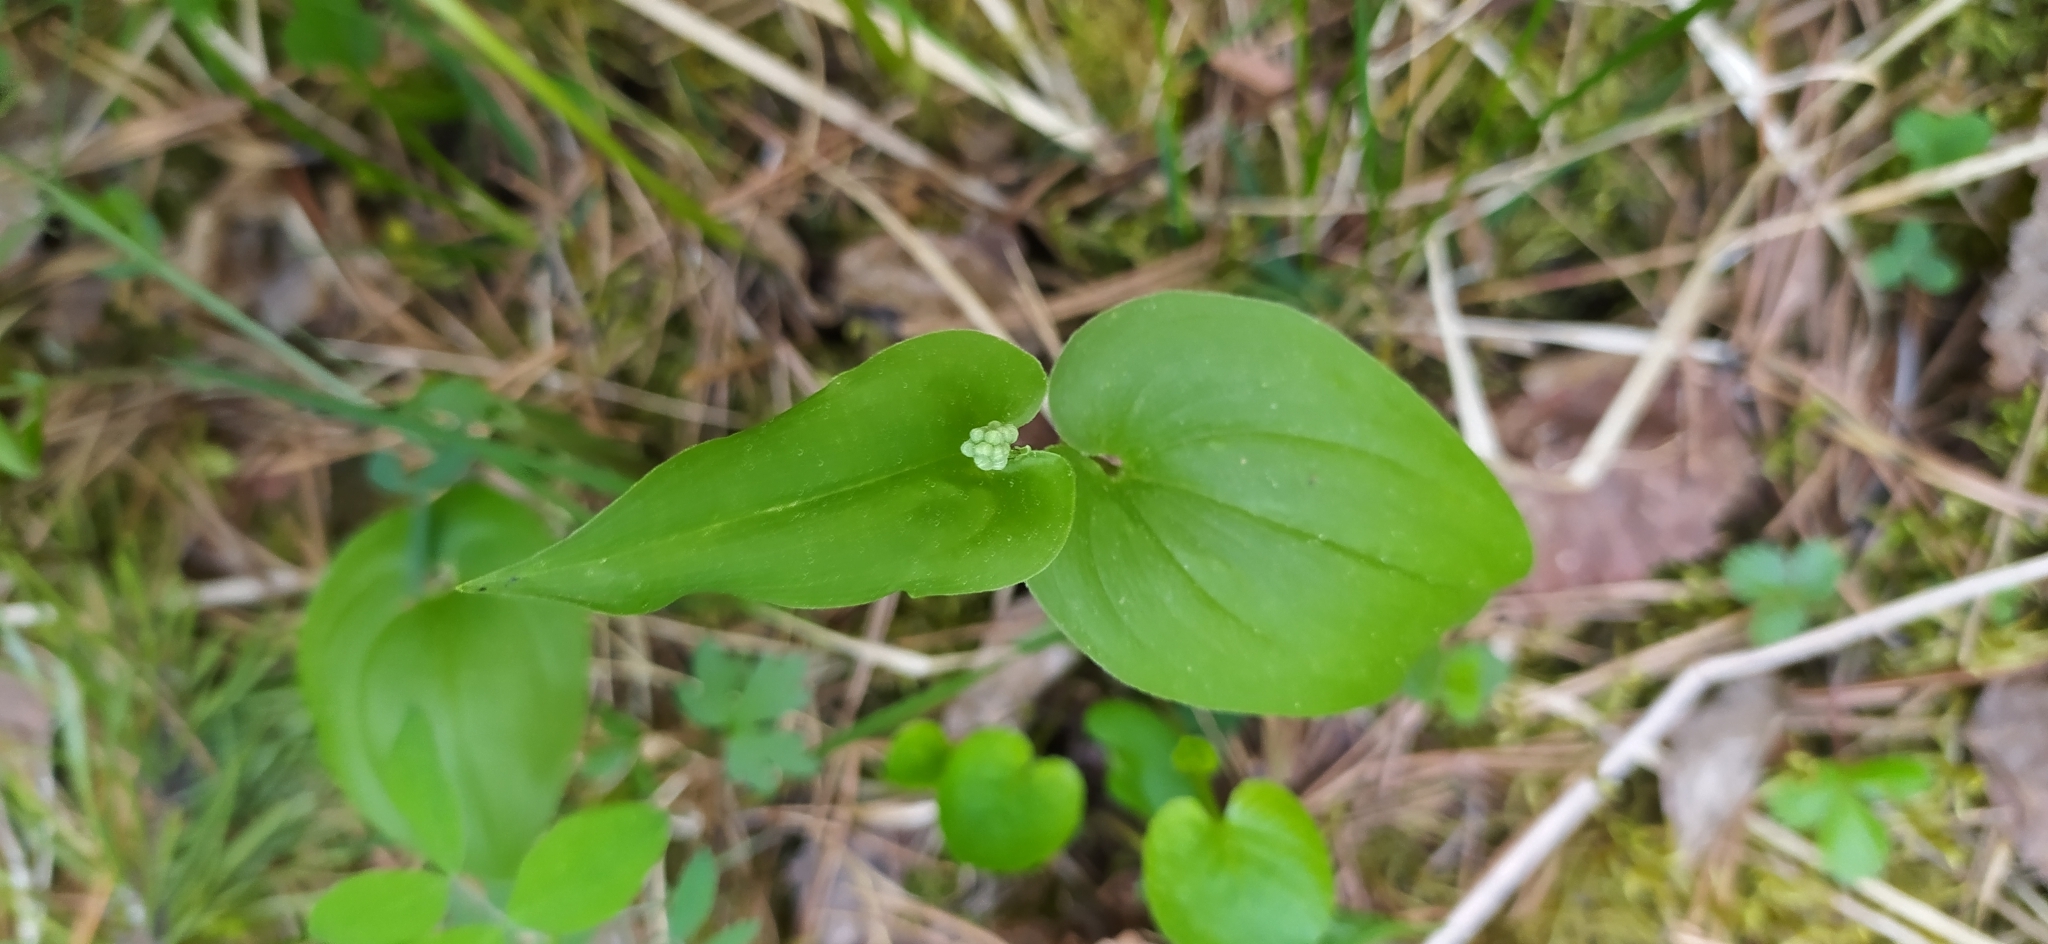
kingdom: Plantae
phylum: Tracheophyta
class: Liliopsida
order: Asparagales
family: Asparagaceae
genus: Maianthemum
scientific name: Maianthemum bifolium
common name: May lily
